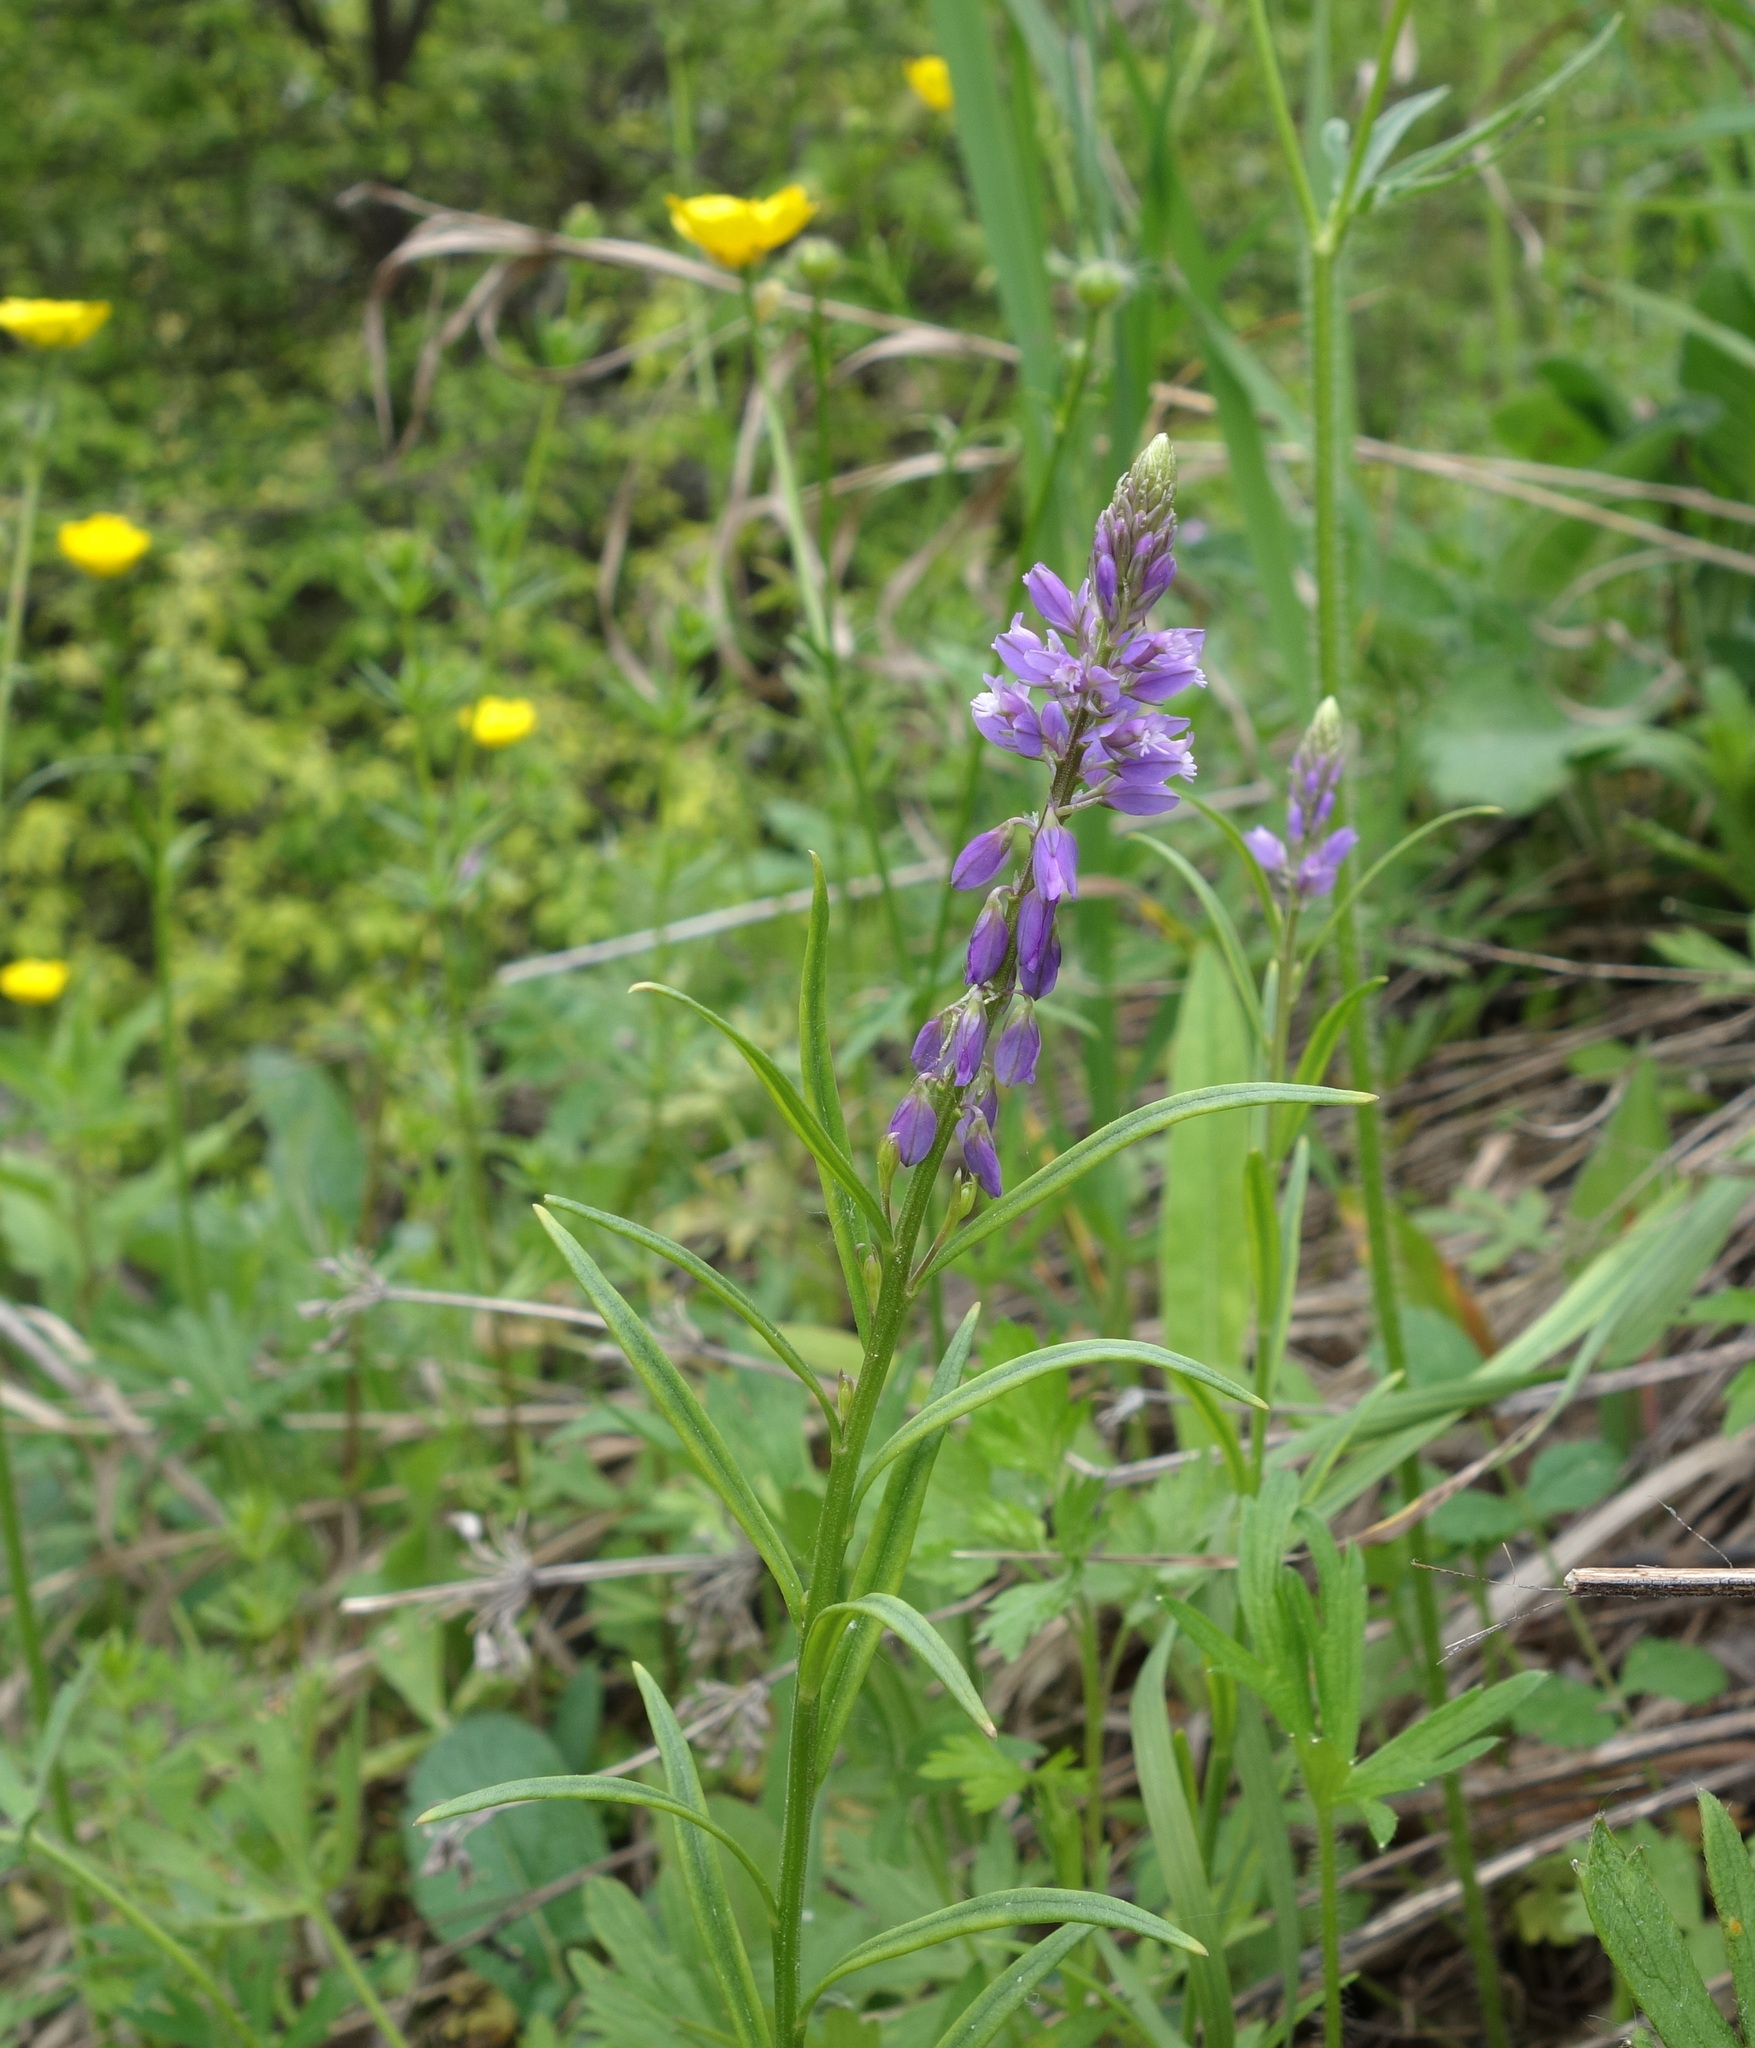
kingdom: Plantae
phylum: Tracheophyta
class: Magnoliopsida
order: Fabales
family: Polygalaceae
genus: Polygala
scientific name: Polygala comosa
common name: Tufted milkwort
